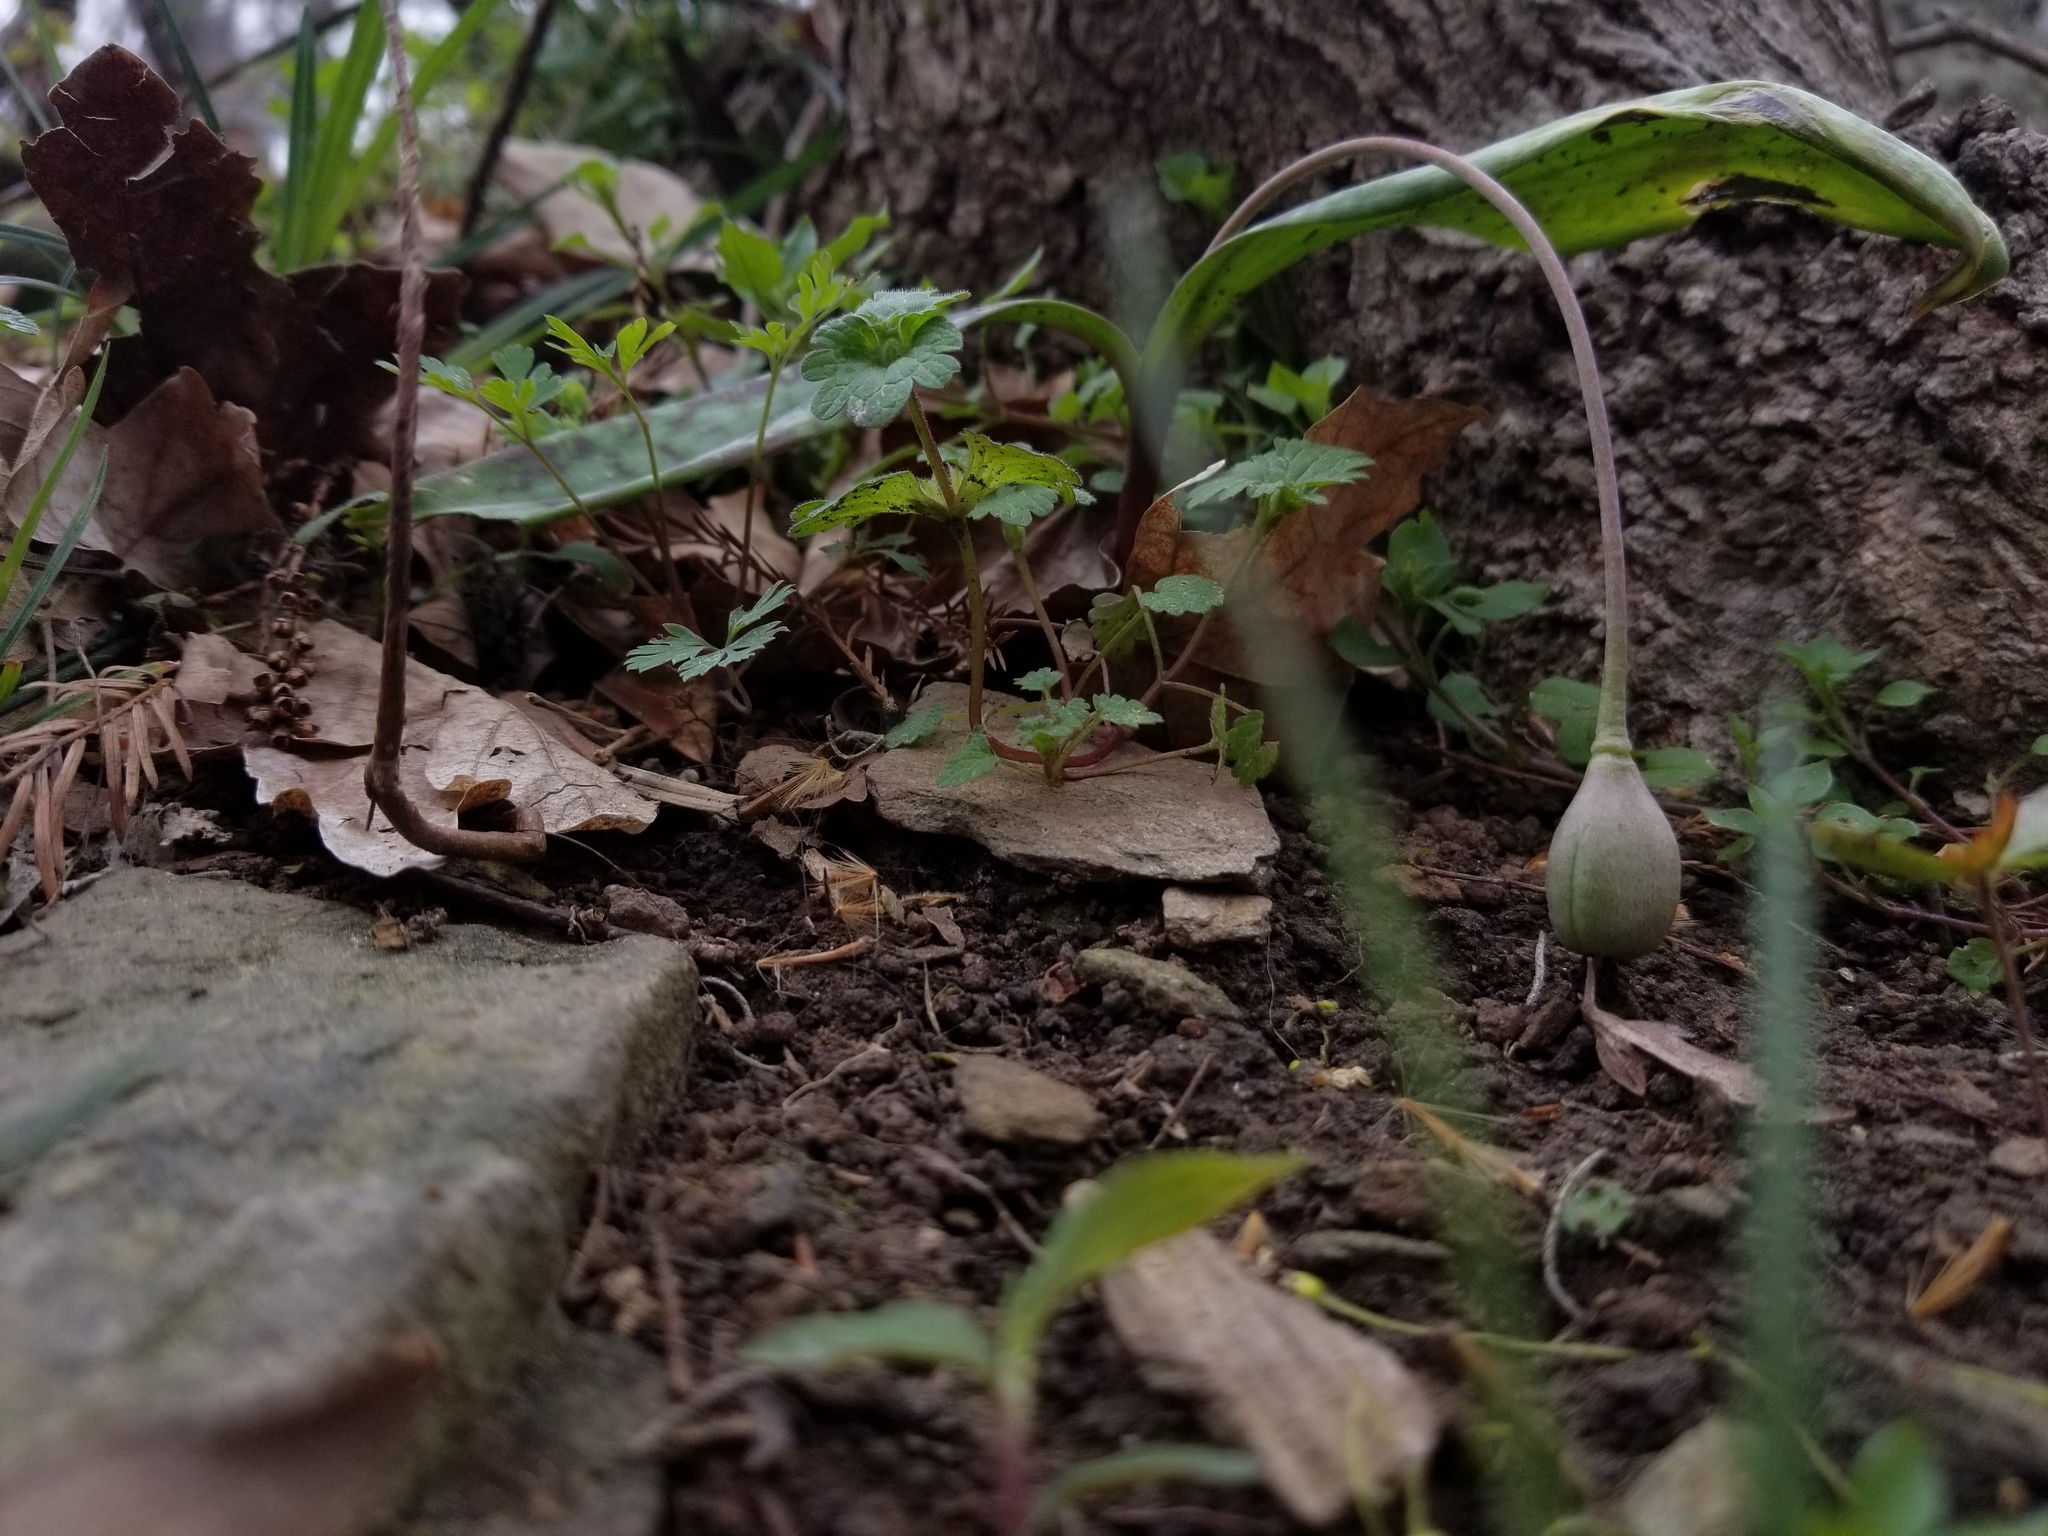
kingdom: Plantae
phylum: Tracheophyta
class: Liliopsida
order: Liliales
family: Liliaceae
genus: Erythronium
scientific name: Erythronium umbilicatum
